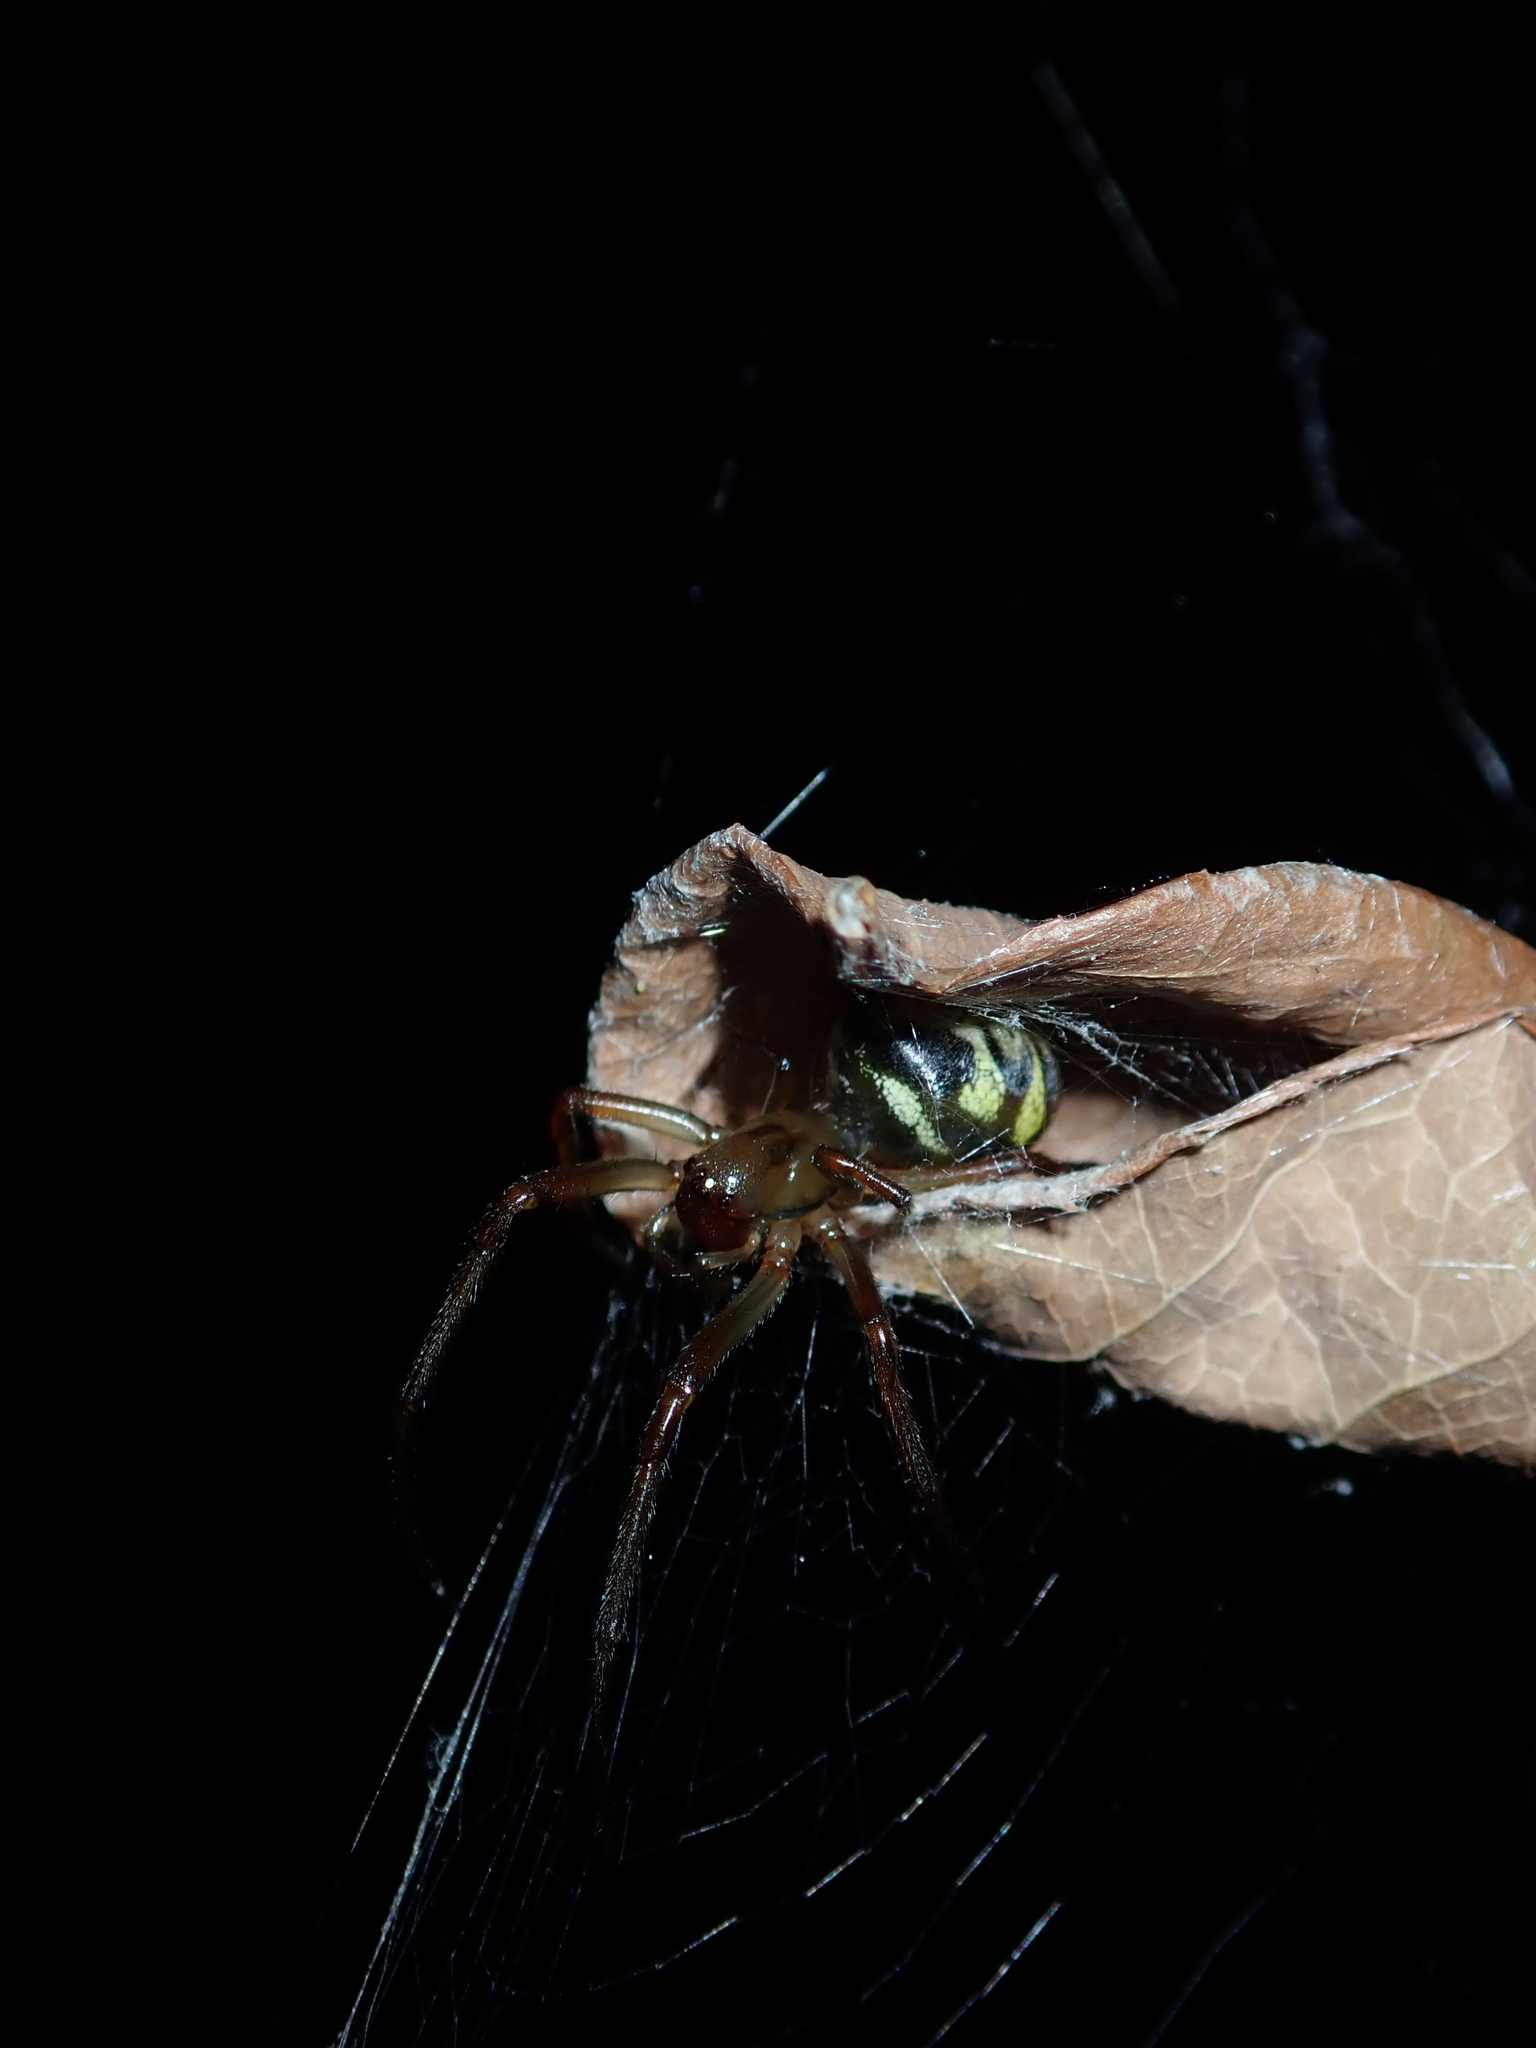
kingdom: Animalia
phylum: Arthropoda
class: Arachnida
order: Araneae
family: Araneidae
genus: Phonognatha
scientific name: Phonognatha graeffei
